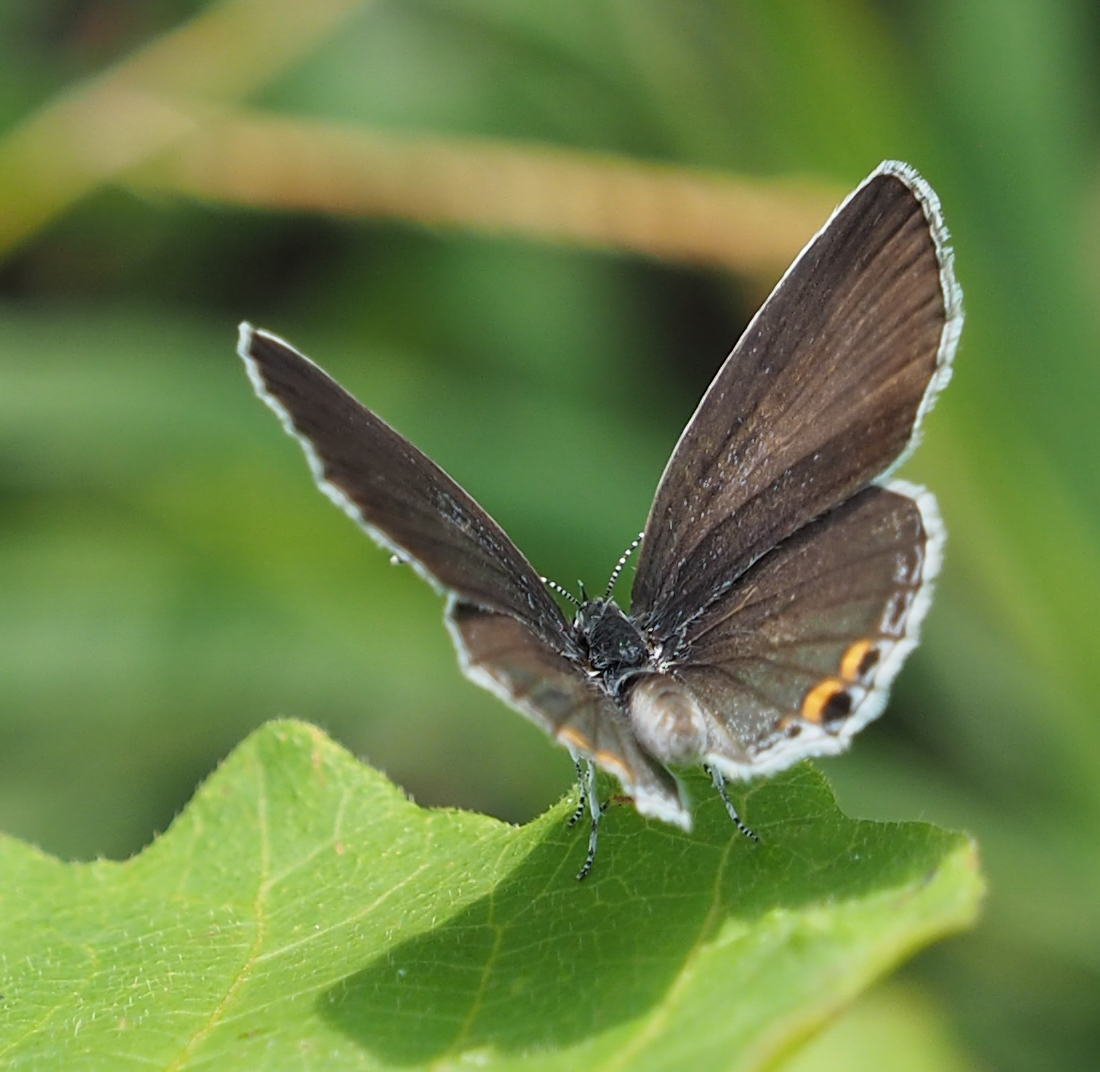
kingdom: Animalia
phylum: Arthropoda
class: Insecta
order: Lepidoptera
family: Lycaenidae
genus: Elkalyce
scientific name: Elkalyce comyntas
